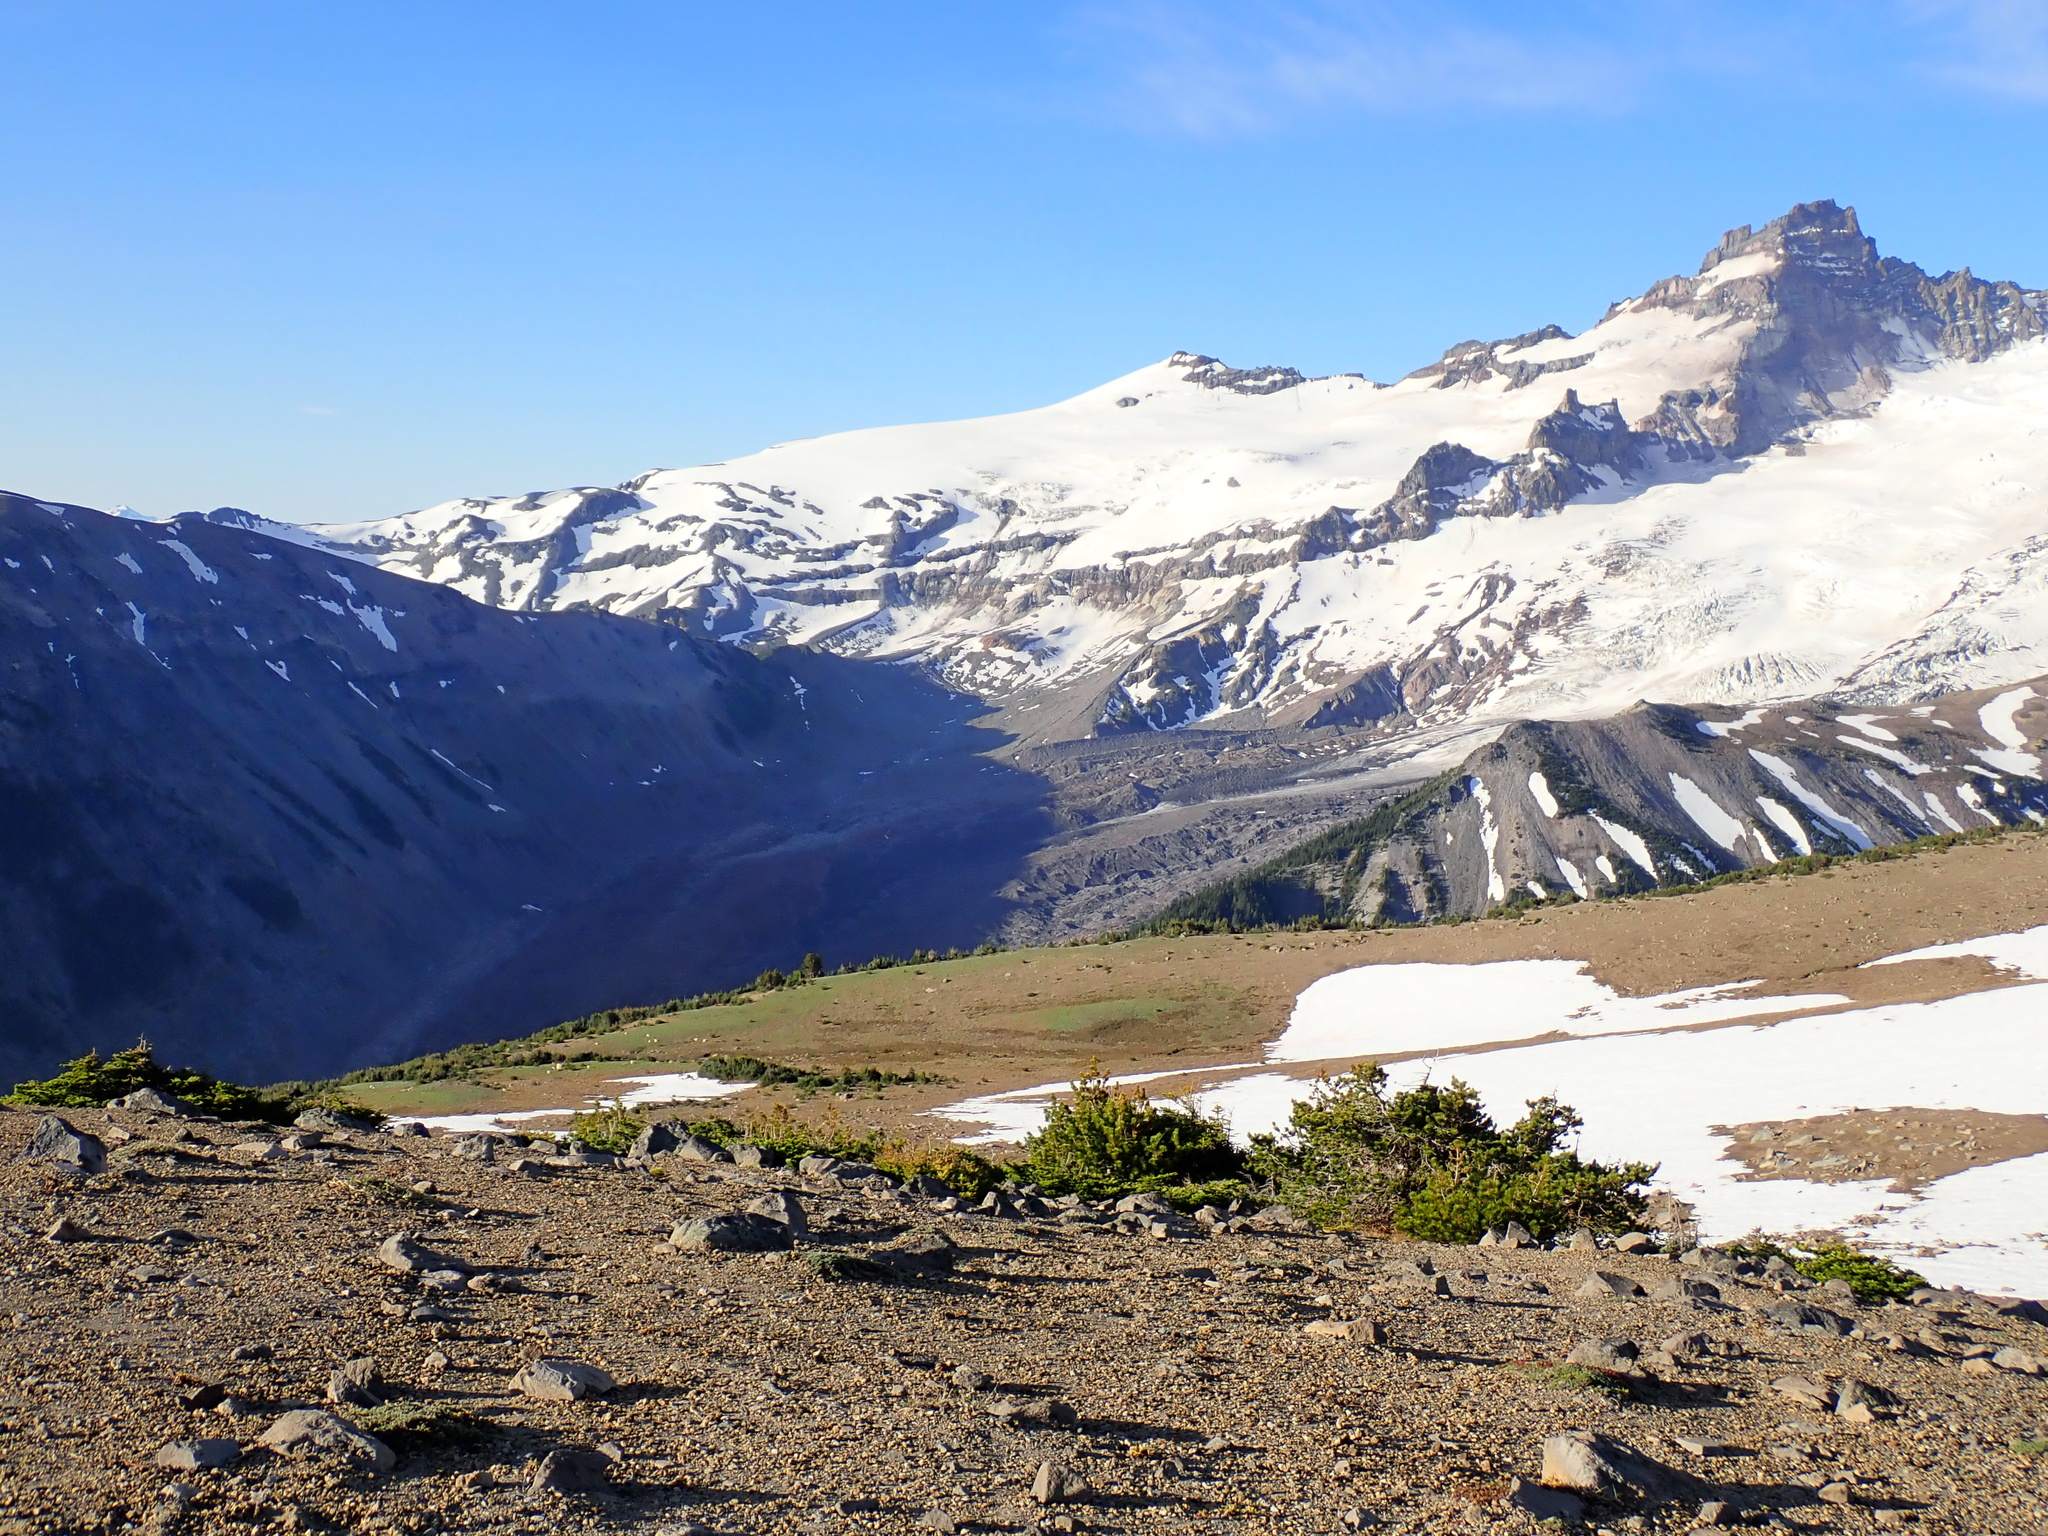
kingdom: Animalia
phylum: Chordata
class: Mammalia
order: Artiodactyla
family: Bovidae
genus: Oreamnos
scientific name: Oreamnos americanus
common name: Mountain goat
